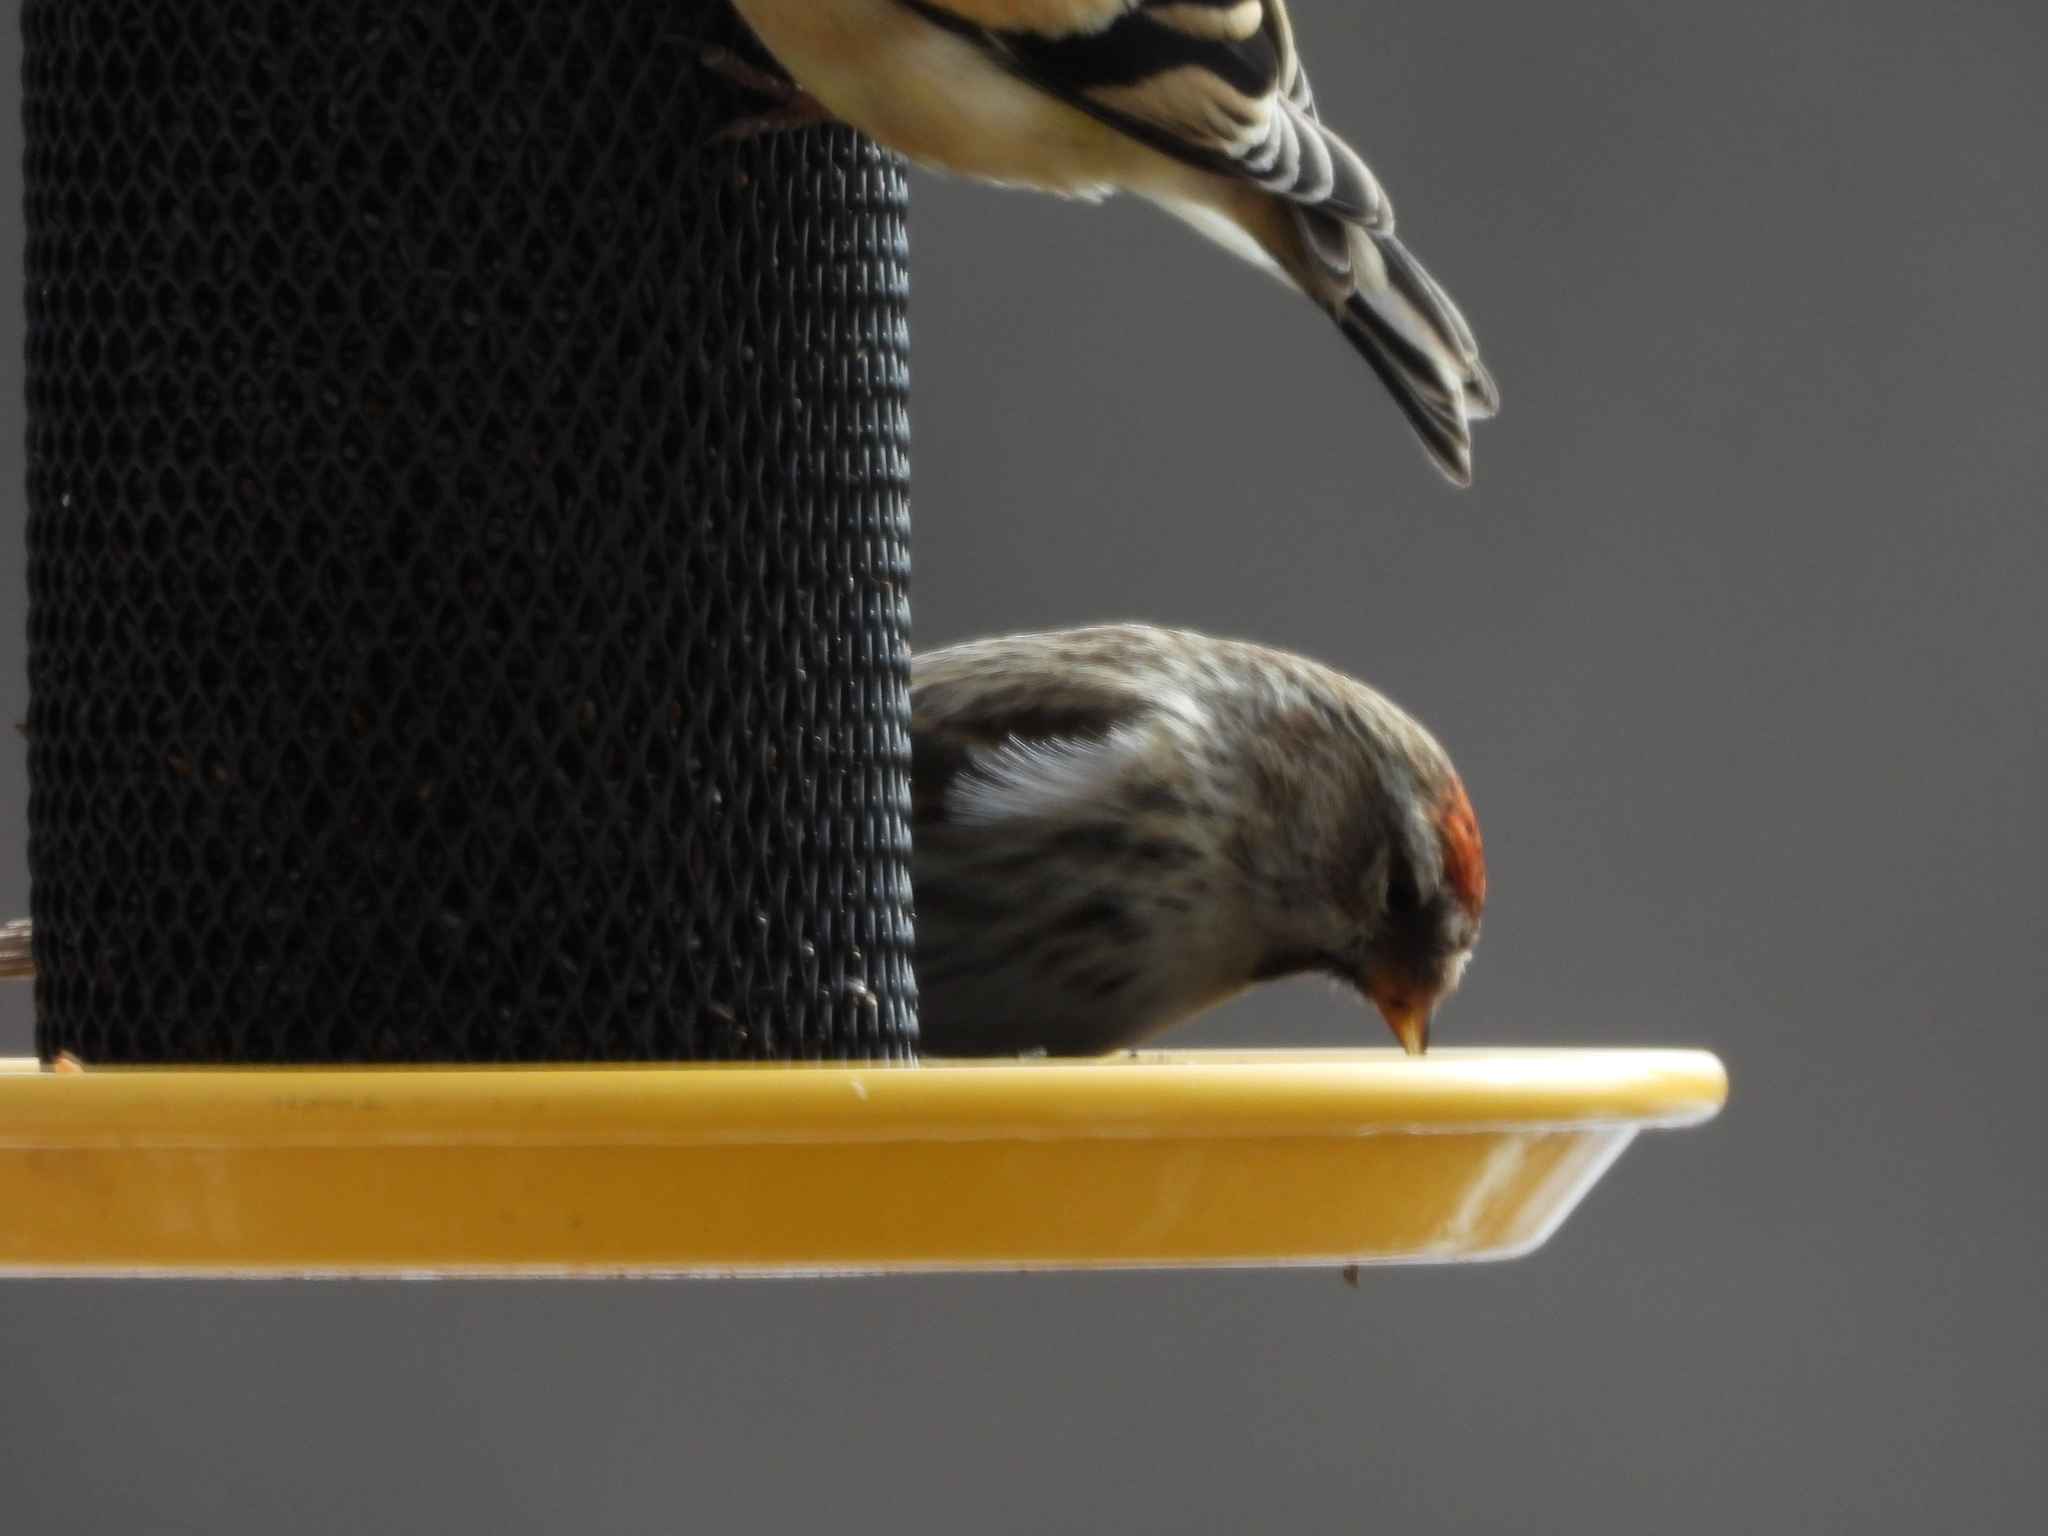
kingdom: Animalia
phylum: Chordata
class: Aves
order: Passeriformes
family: Fringillidae
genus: Acanthis
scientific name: Acanthis flammea
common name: Common redpoll
